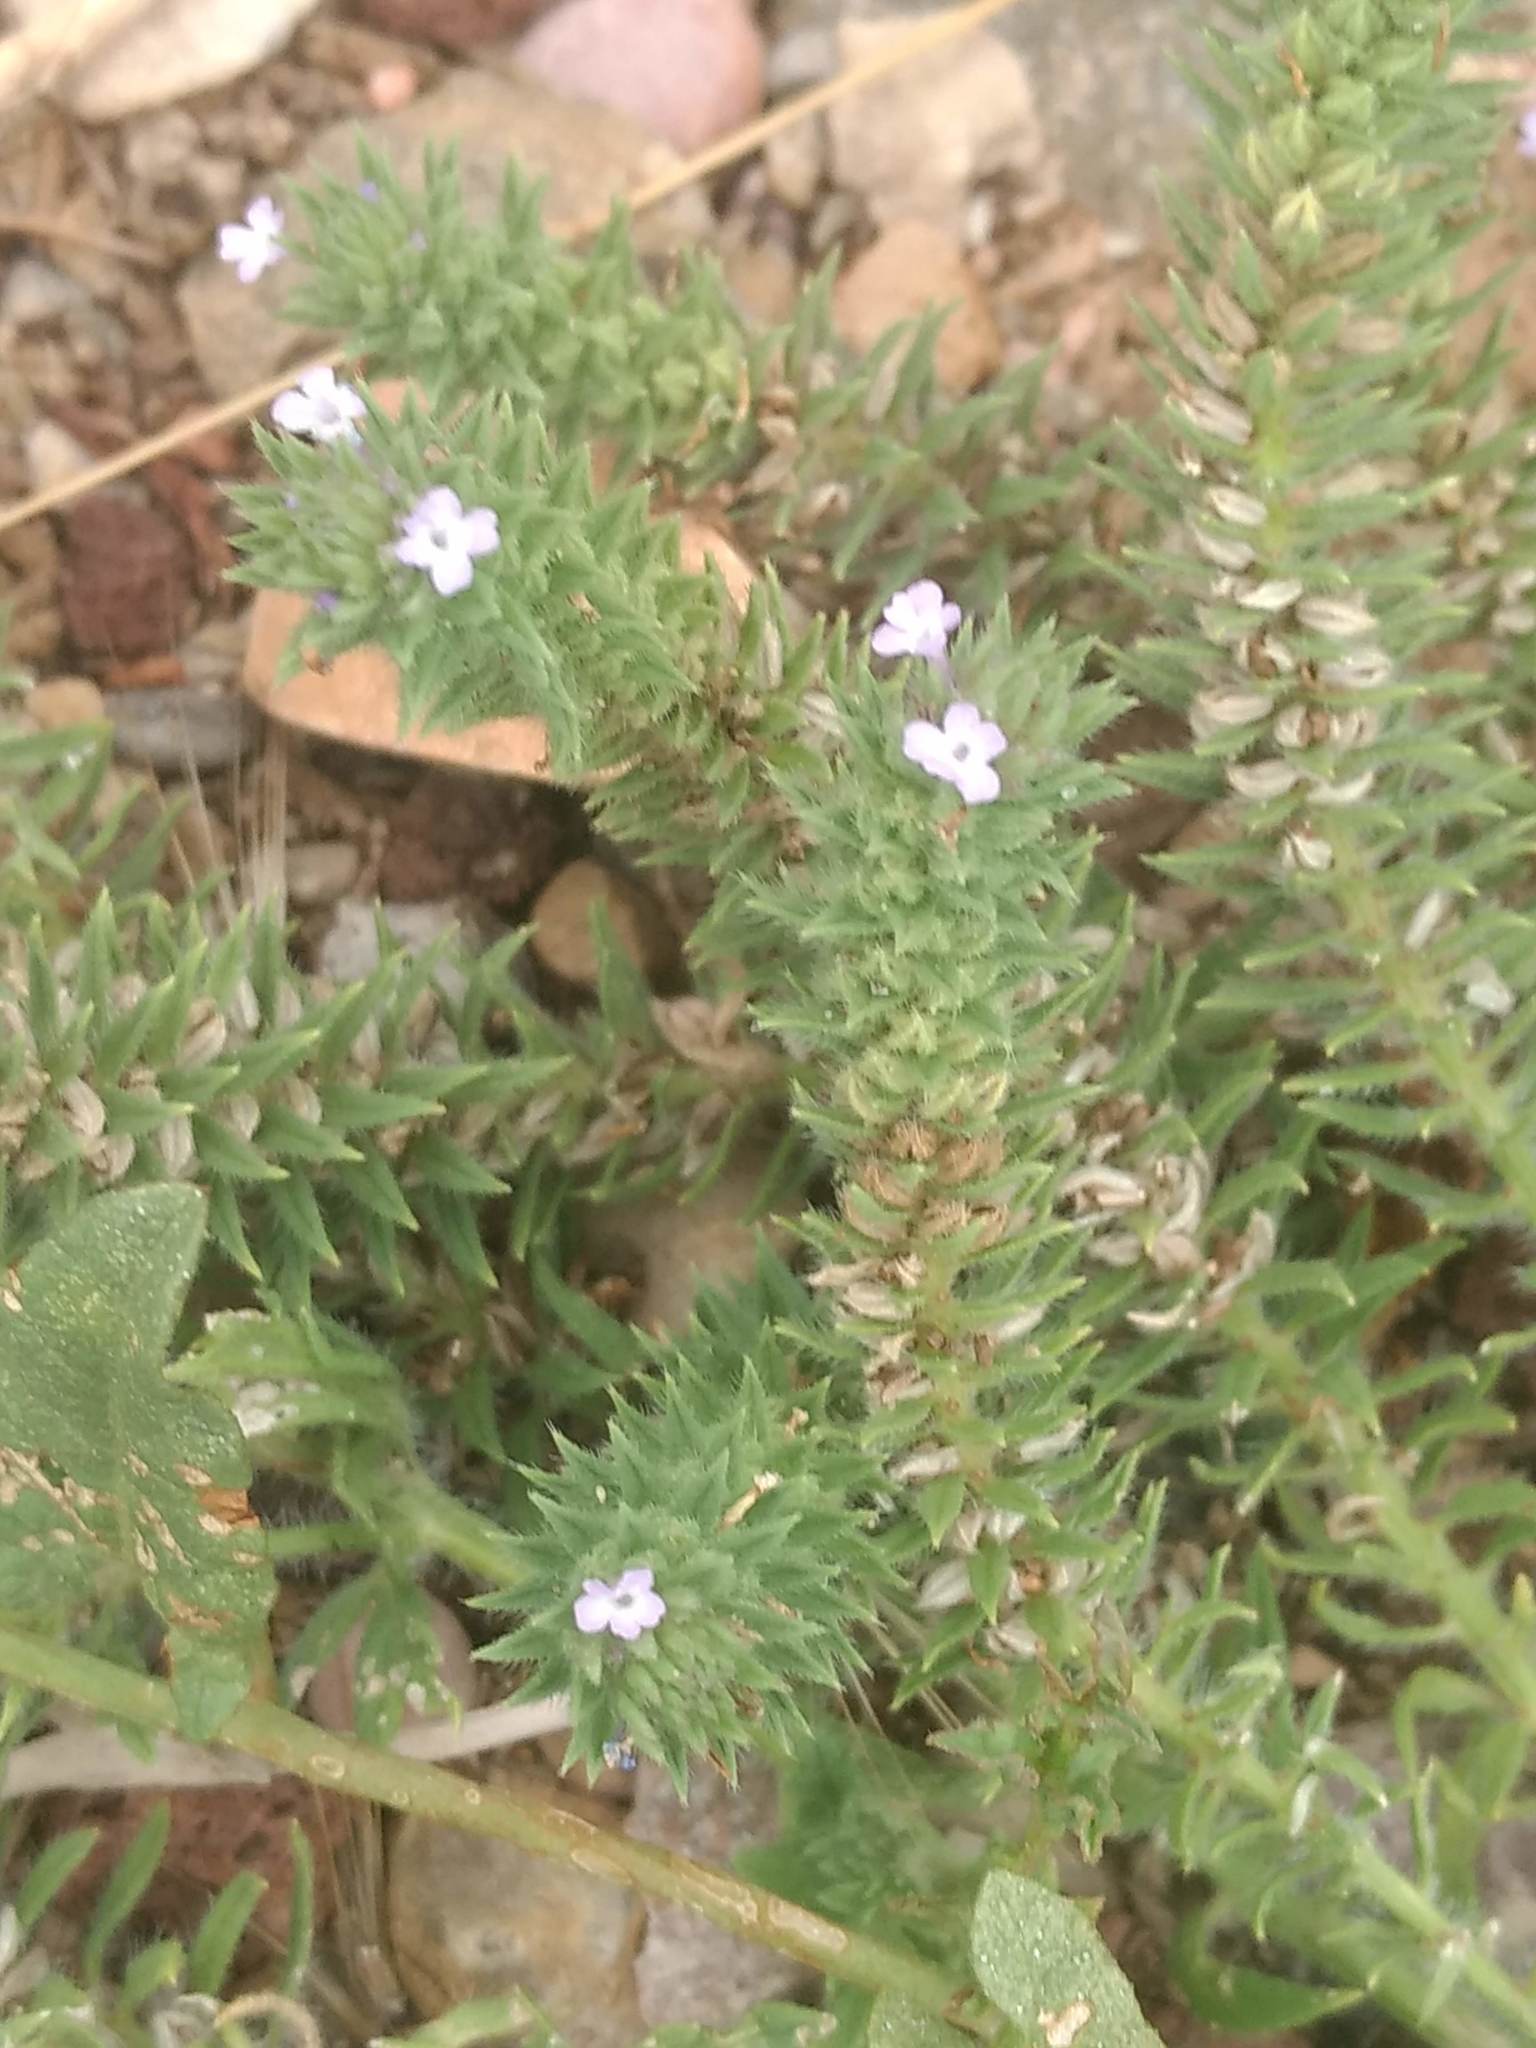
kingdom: Plantae
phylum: Tracheophyta
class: Magnoliopsida
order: Lamiales
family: Verbenaceae
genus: Verbena
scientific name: Verbena bracteata
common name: Bracted vervain
